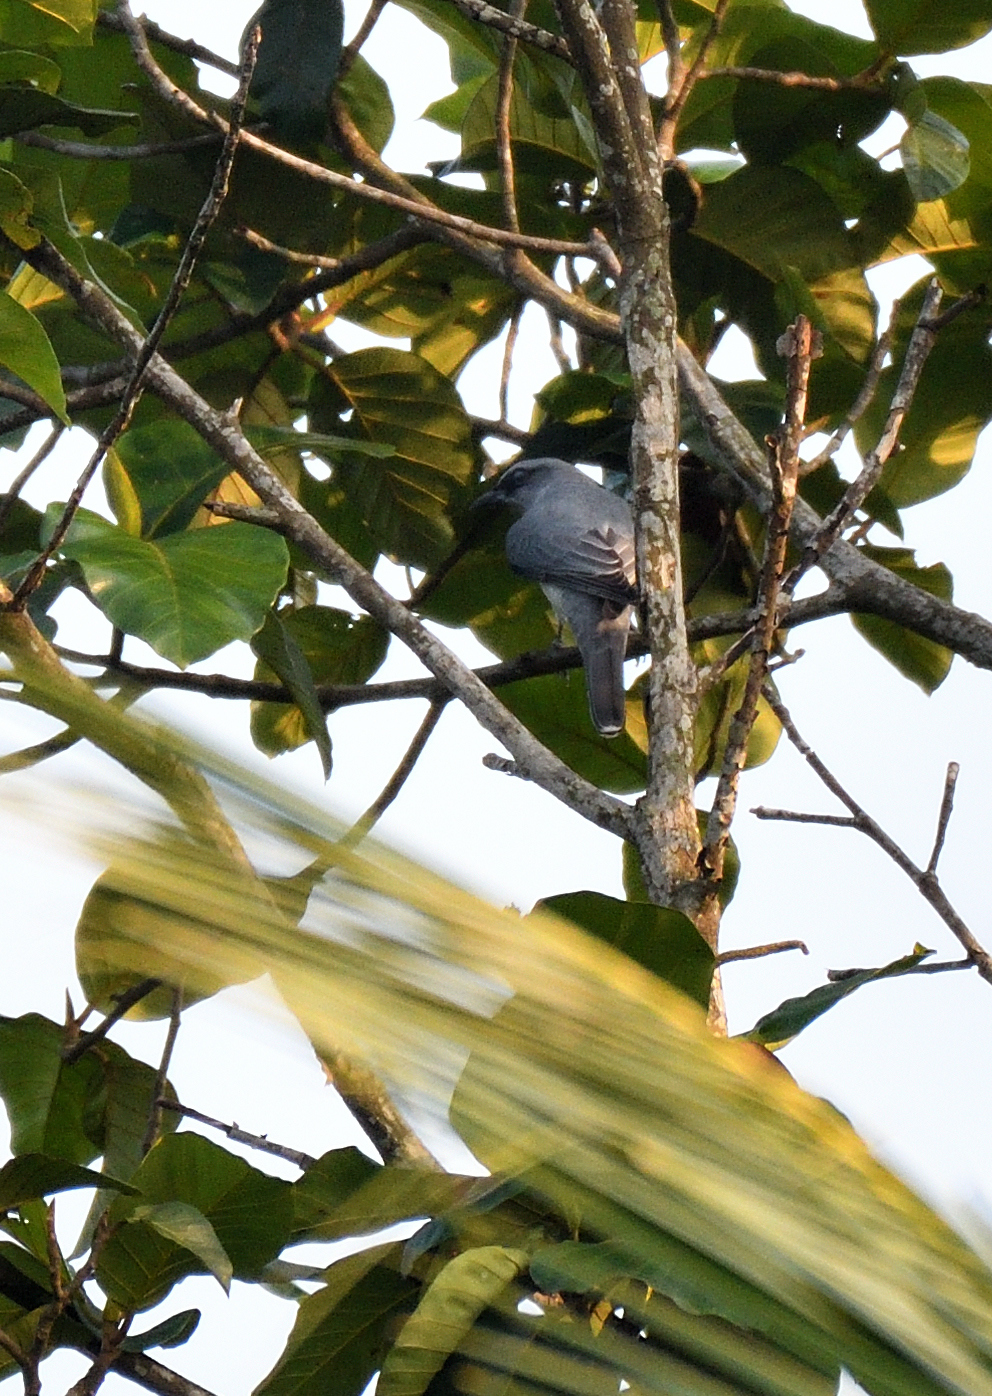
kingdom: Animalia
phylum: Chordata
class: Aves
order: Passeriformes
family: Campephagidae
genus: Coracina
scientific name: Coracina macei
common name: Large cuckooshrike
